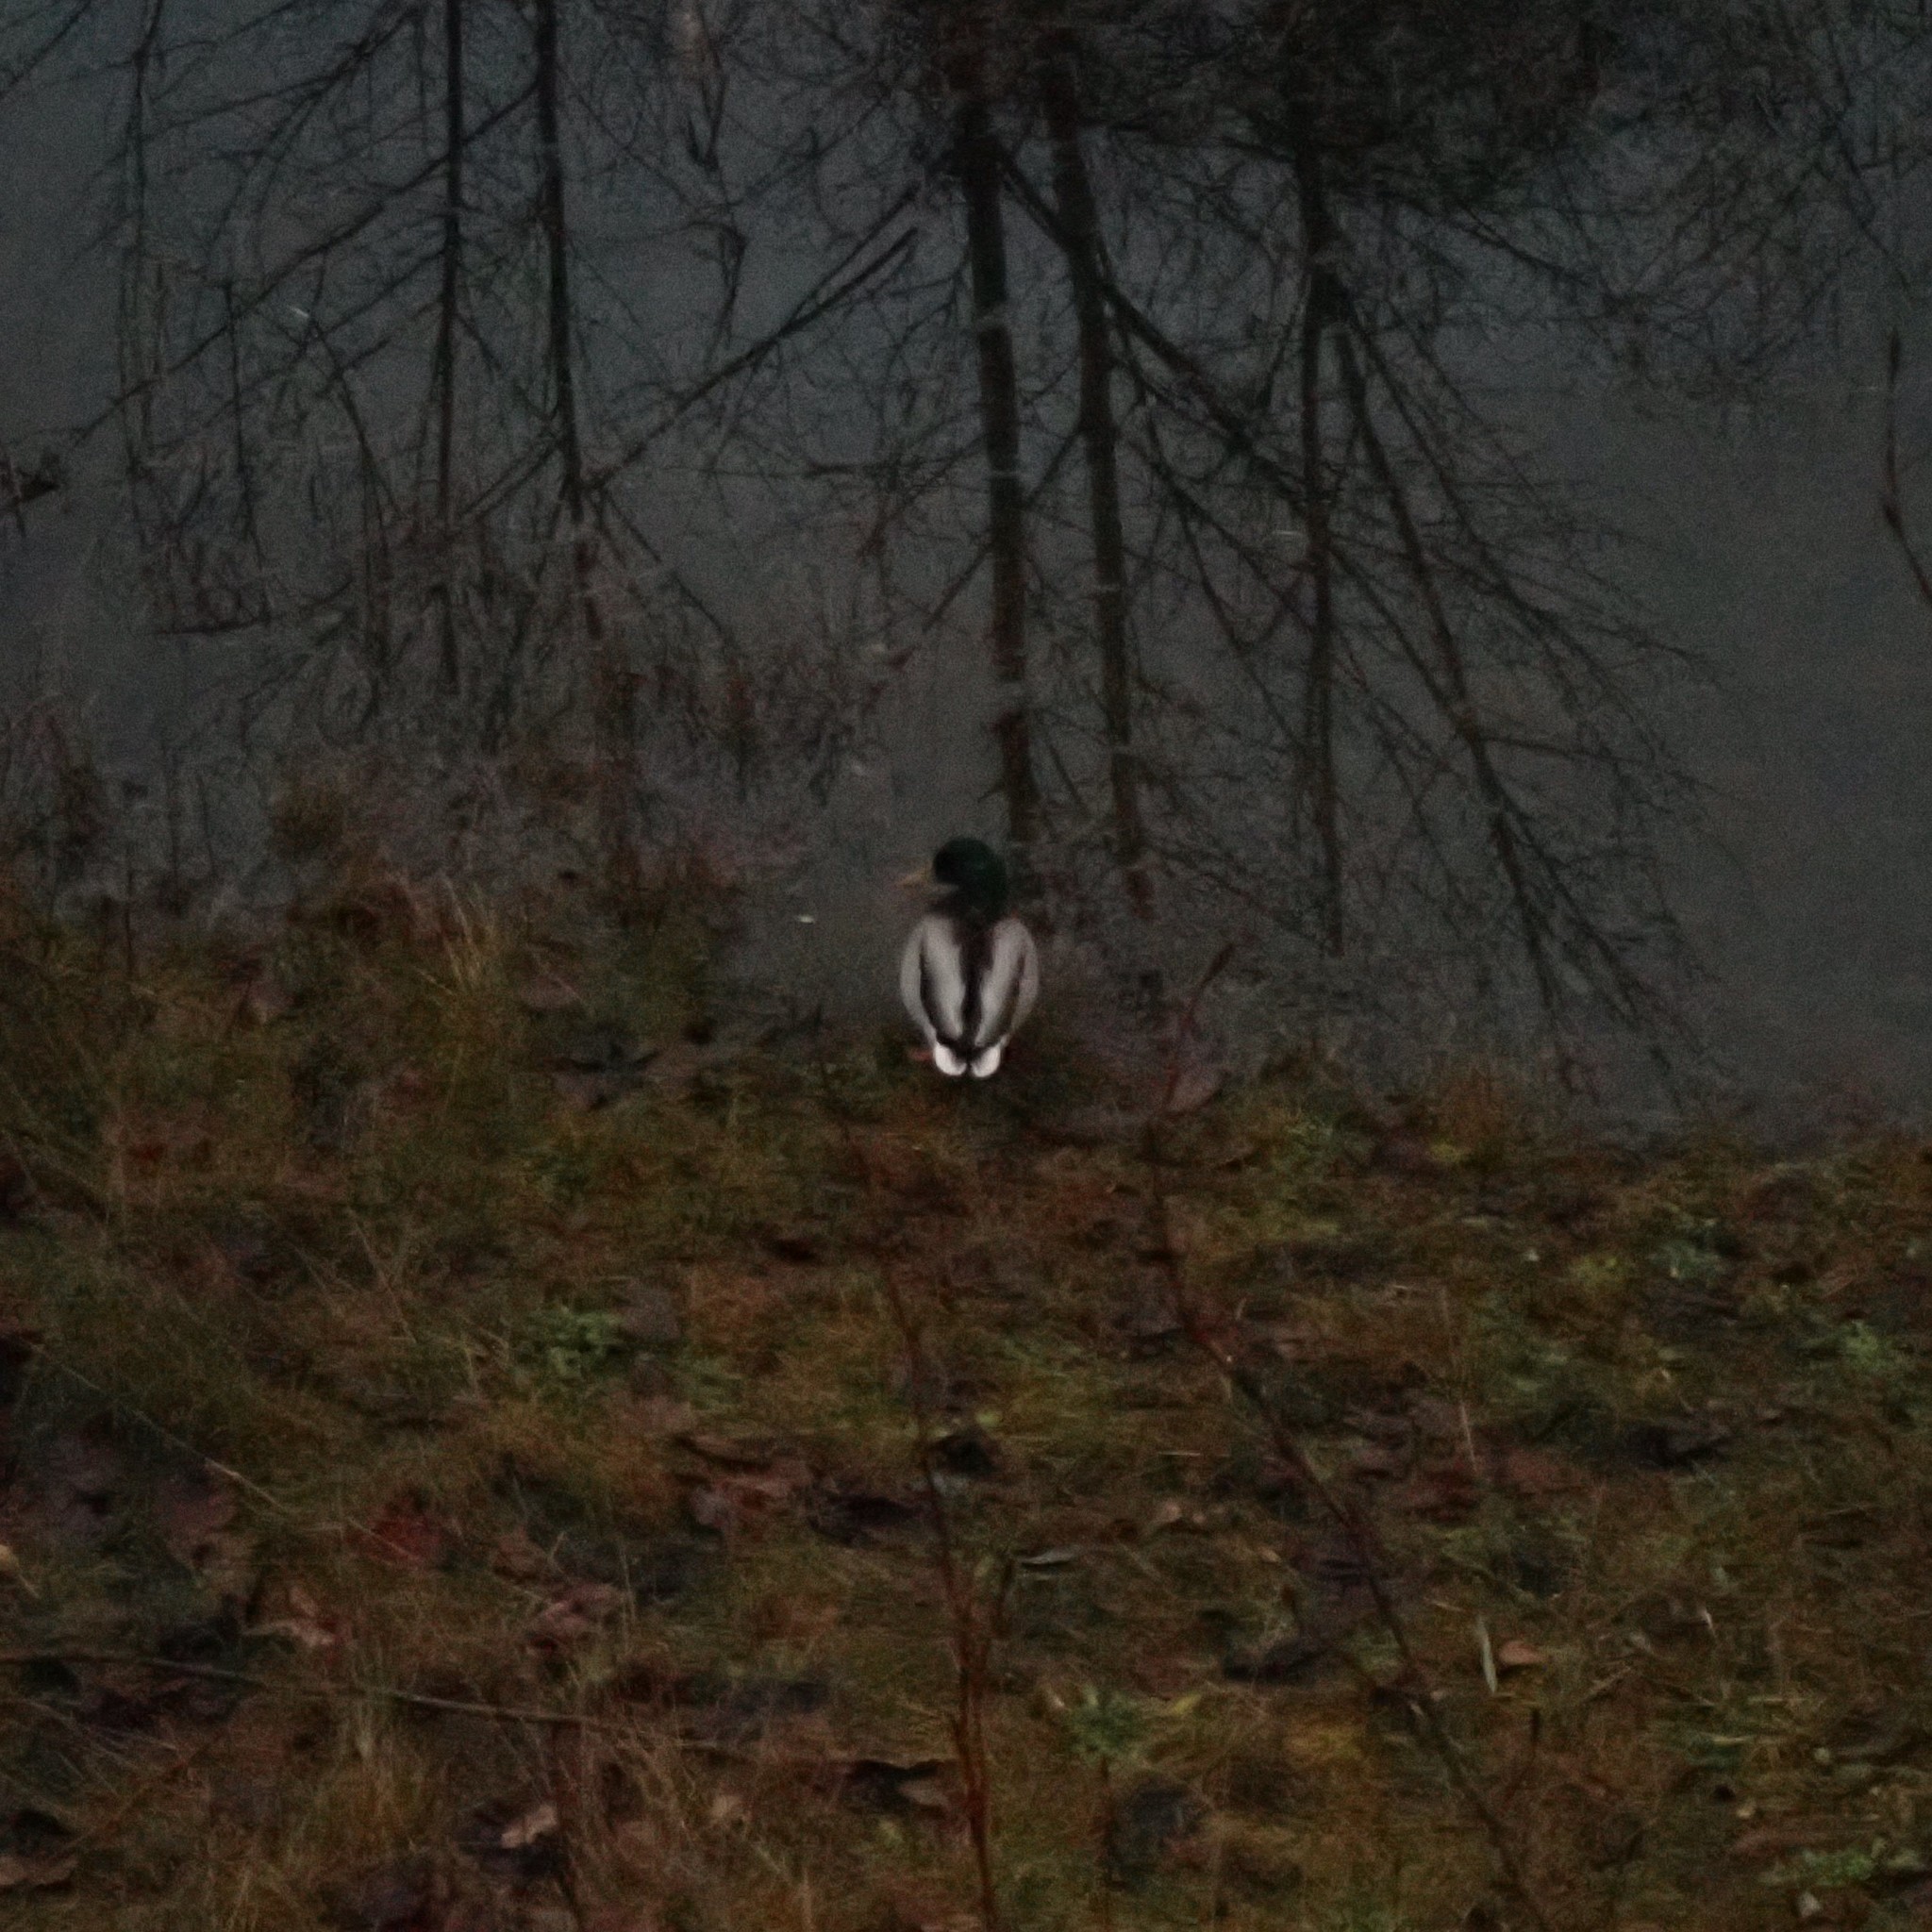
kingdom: Animalia
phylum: Chordata
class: Aves
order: Anseriformes
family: Anatidae
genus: Anas
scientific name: Anas platyrhynchos
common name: Mallard
